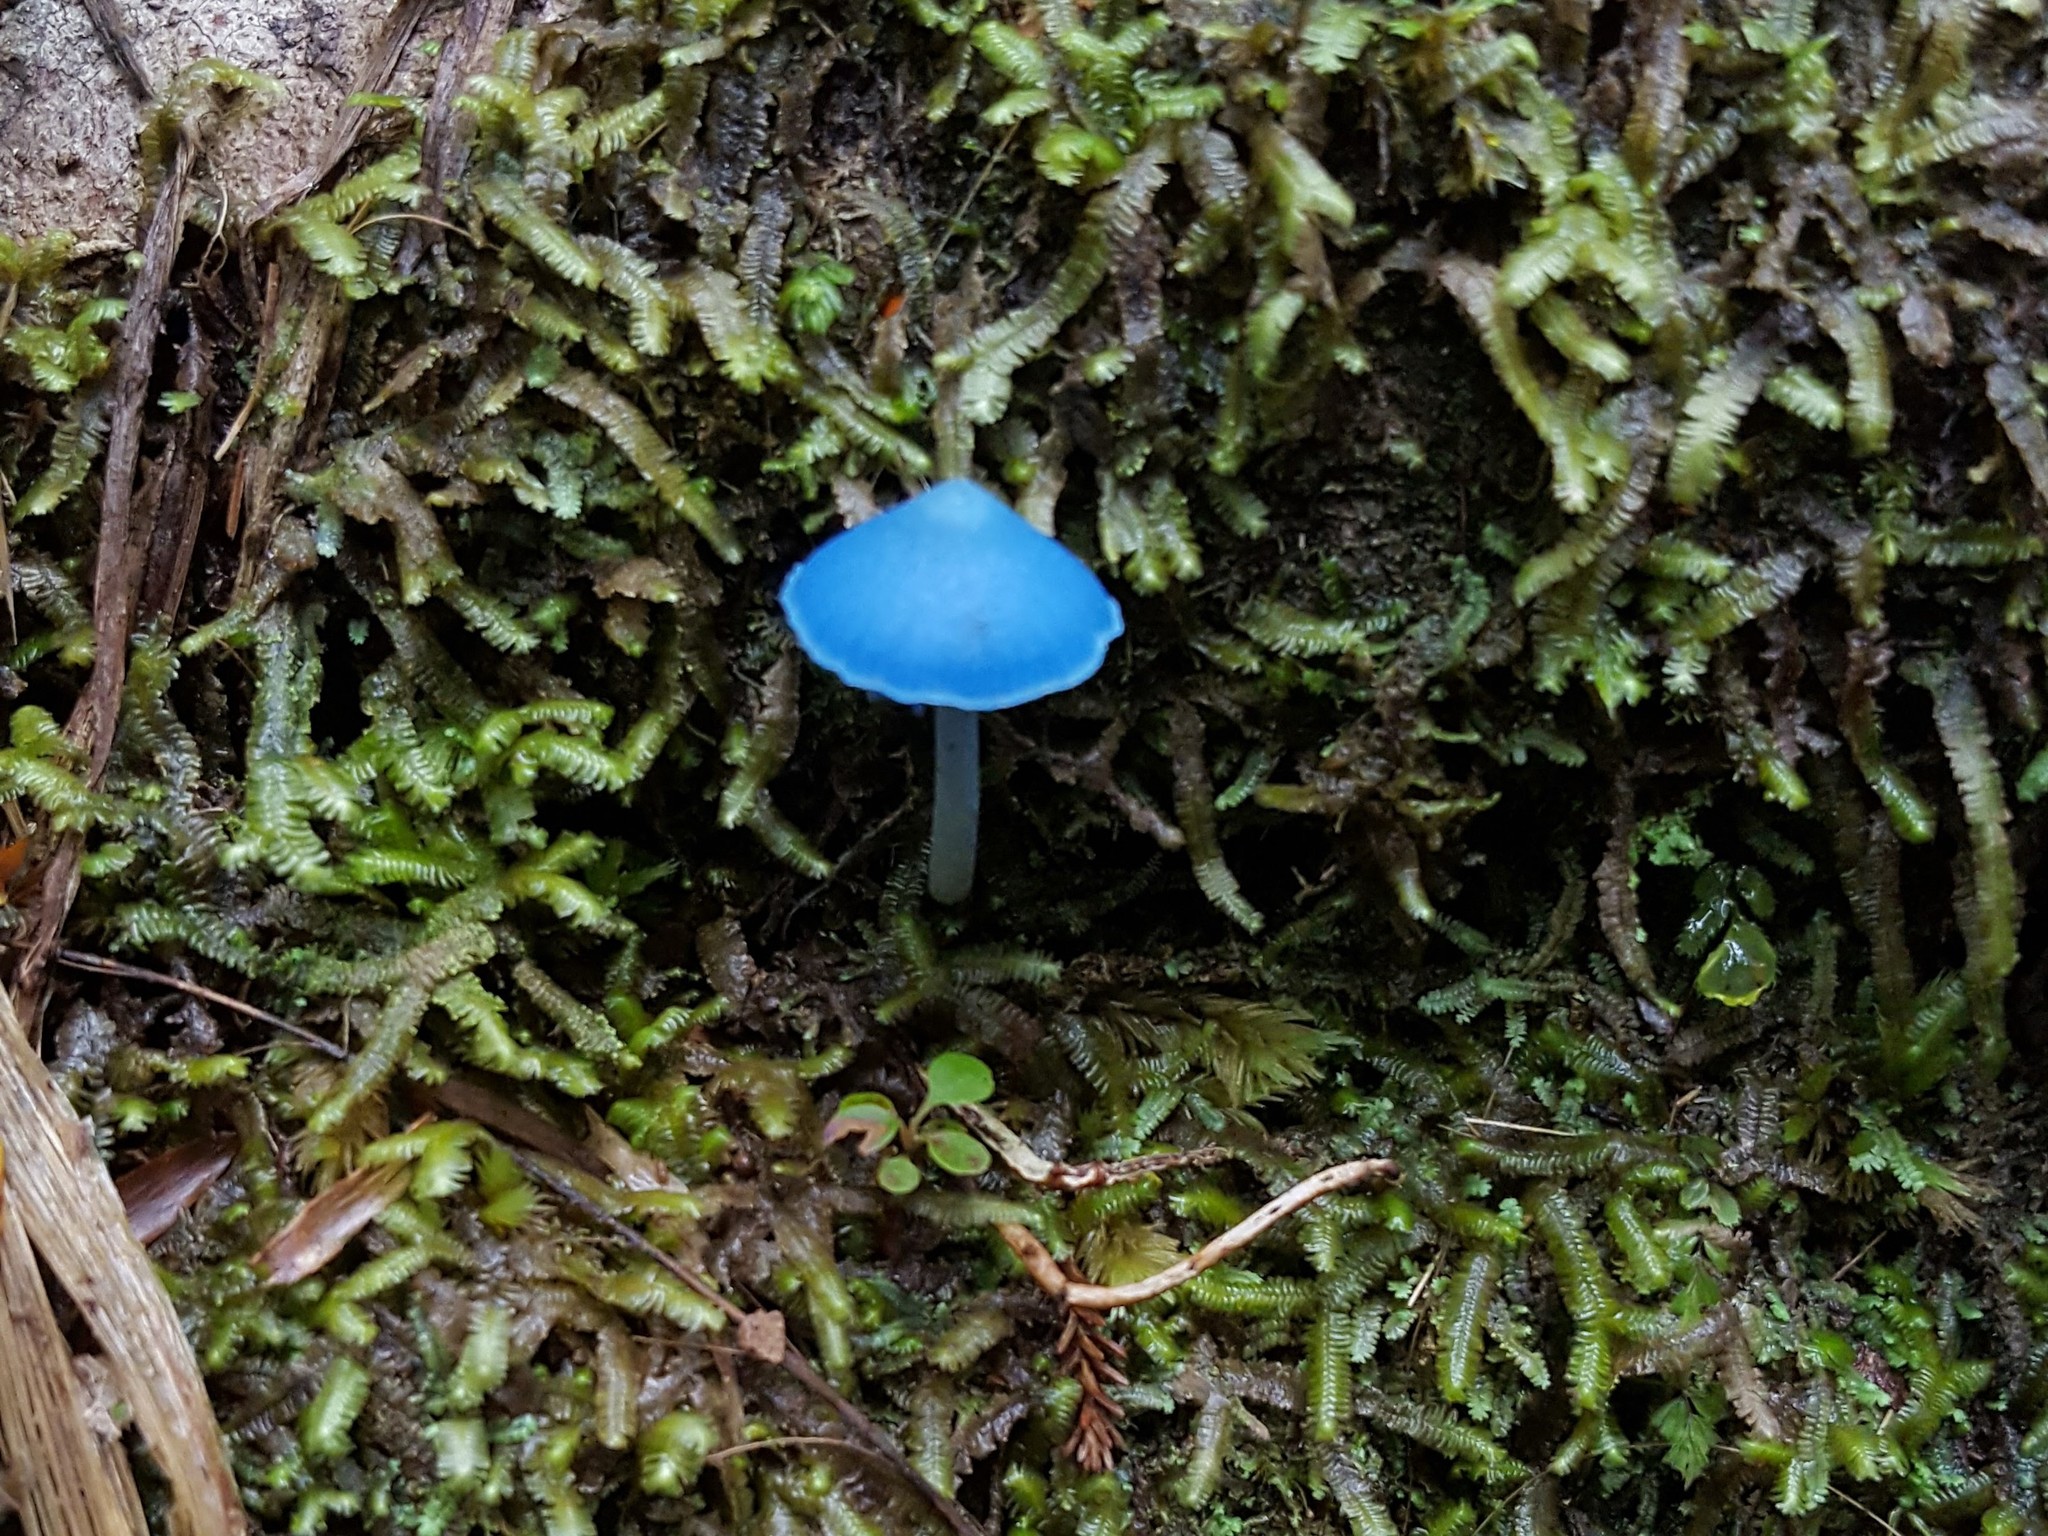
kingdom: Fungi
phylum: Basidiomycota
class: Agaricomycetes
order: Agaricales
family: Entolomataceae
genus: Entoloma
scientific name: Entoloma hochstetteri
